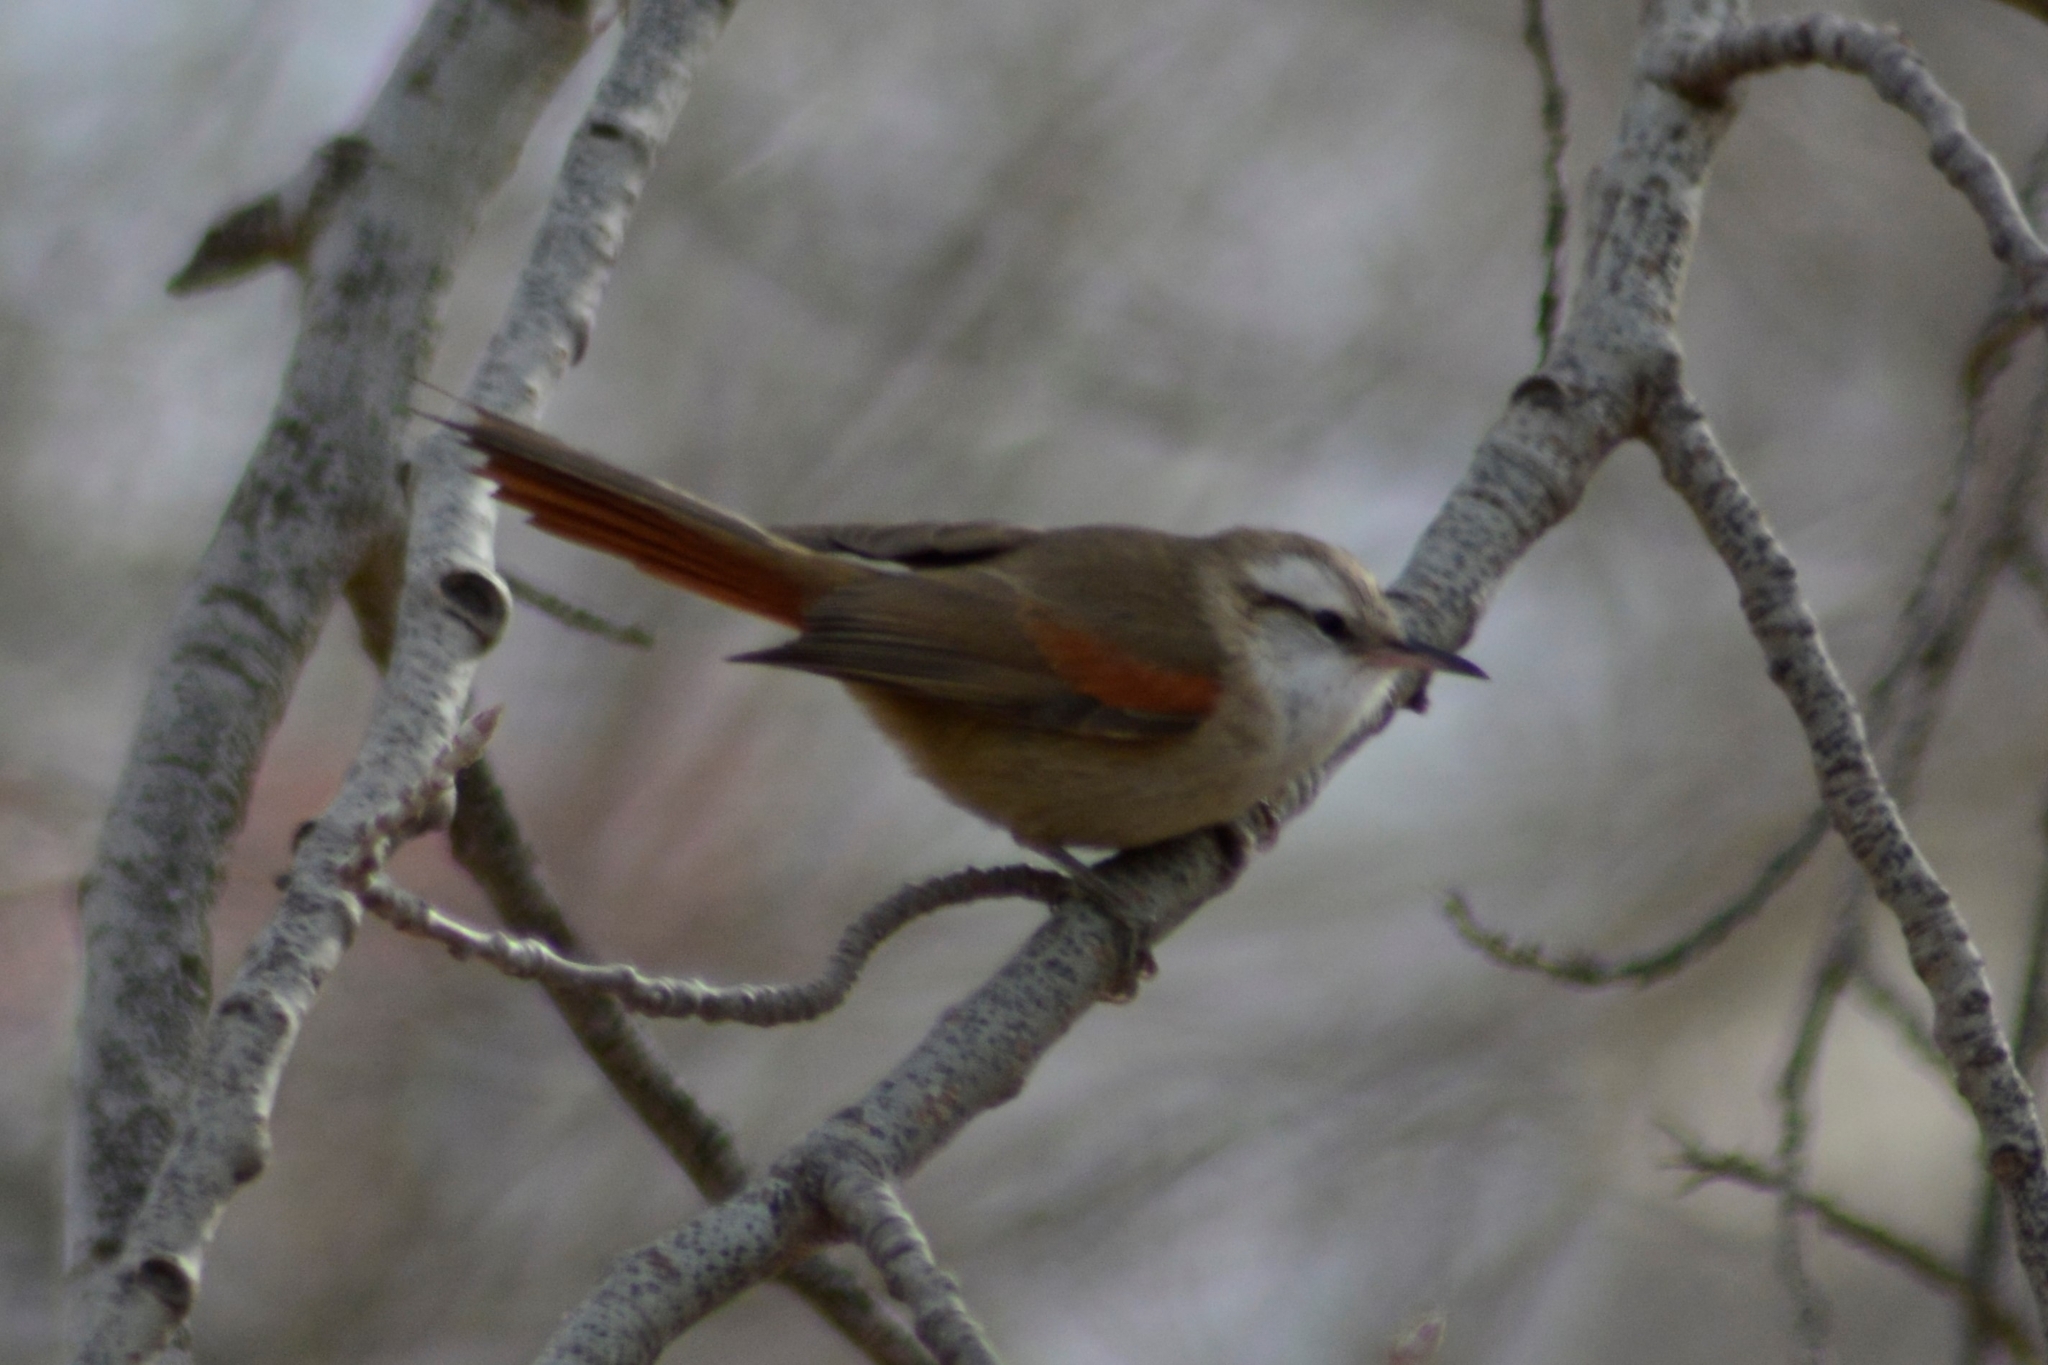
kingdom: Animalia
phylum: Chordata
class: Aves
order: Passeriformes
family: Furnariidae
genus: Cranioleuca
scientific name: Cranioleuca pyrrhophia
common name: Stripe-crowned spinetail
